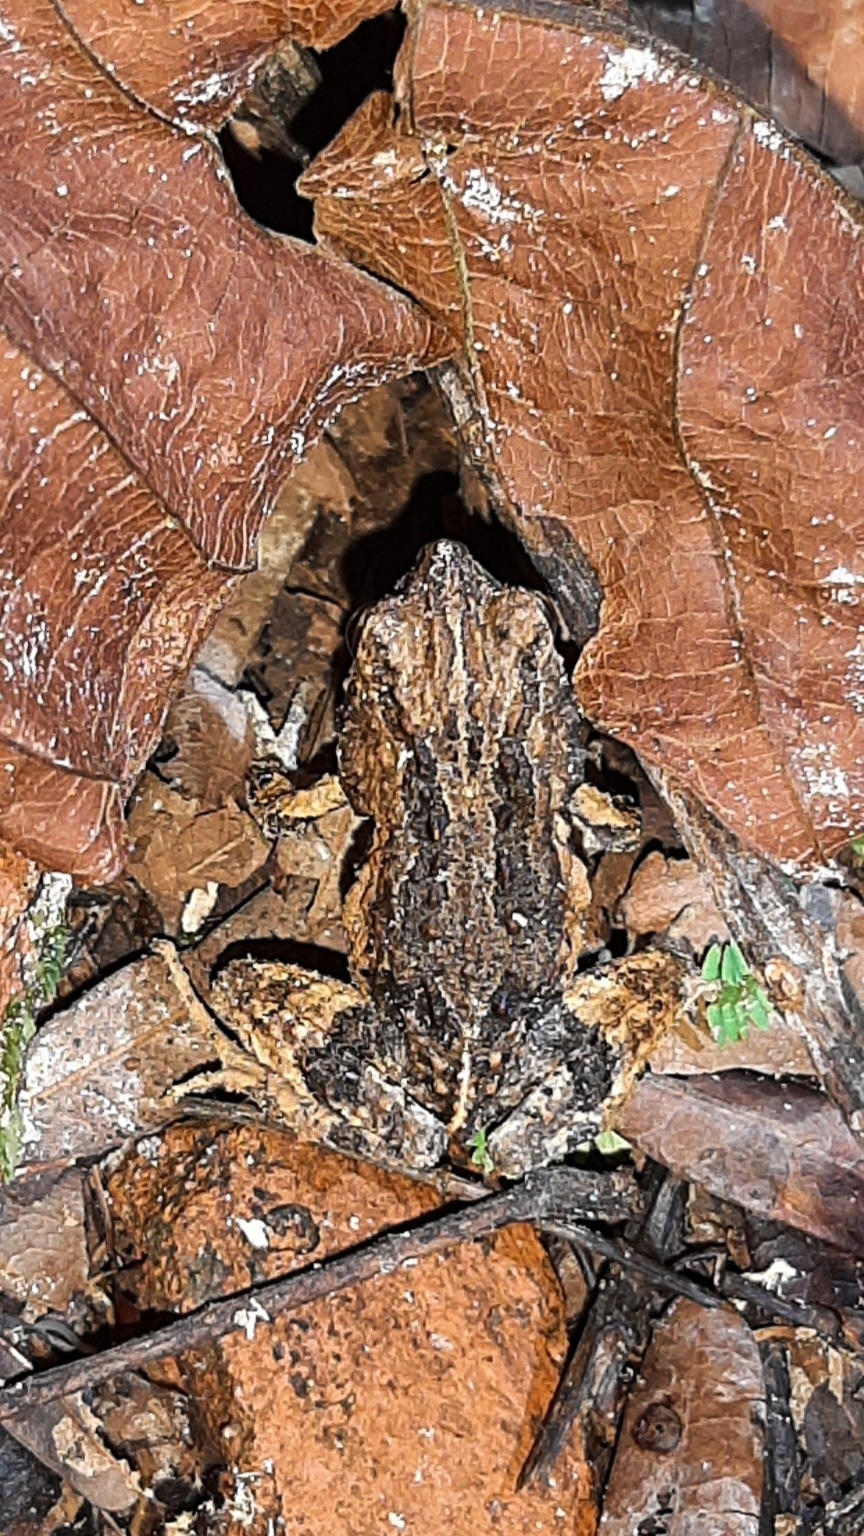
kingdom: Animalia
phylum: Chordata
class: Amphibia
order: Anura
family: Leptodactylidae
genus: Engystomops
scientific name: Engystomops pustulosus
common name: Tungara frog
